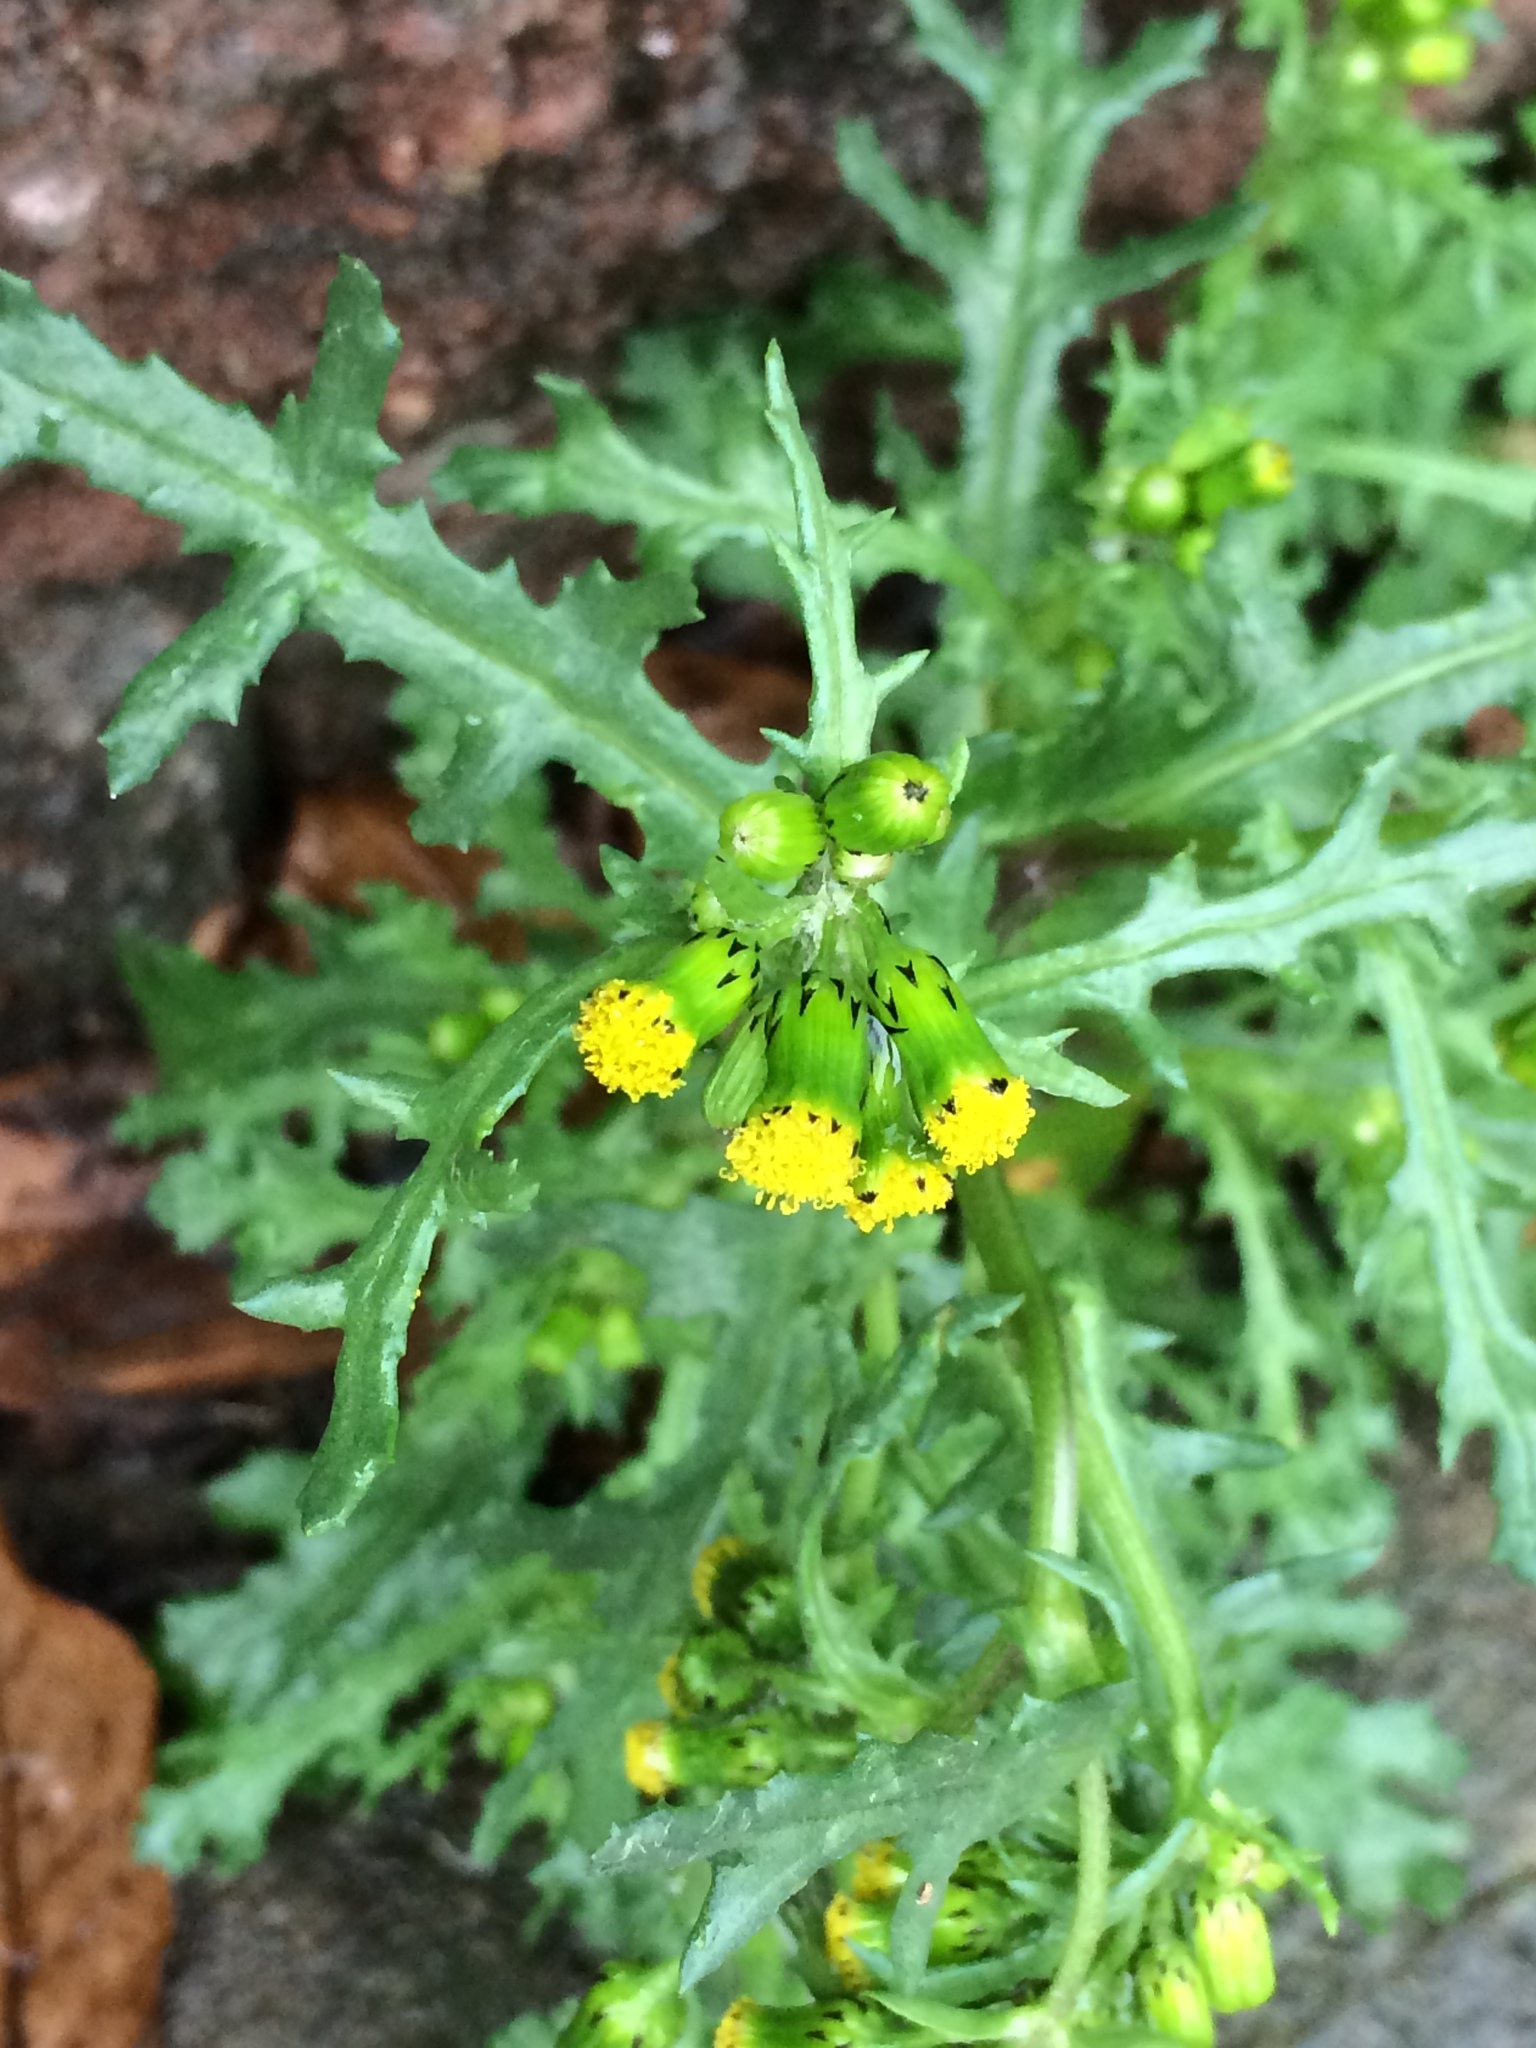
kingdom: Plantae
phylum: Tracheophyta
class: Magnoliopsida
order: Asterales
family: Asteraceae
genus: Senecio
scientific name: Senecio vulgaris
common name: Old-man-in-the-spring
